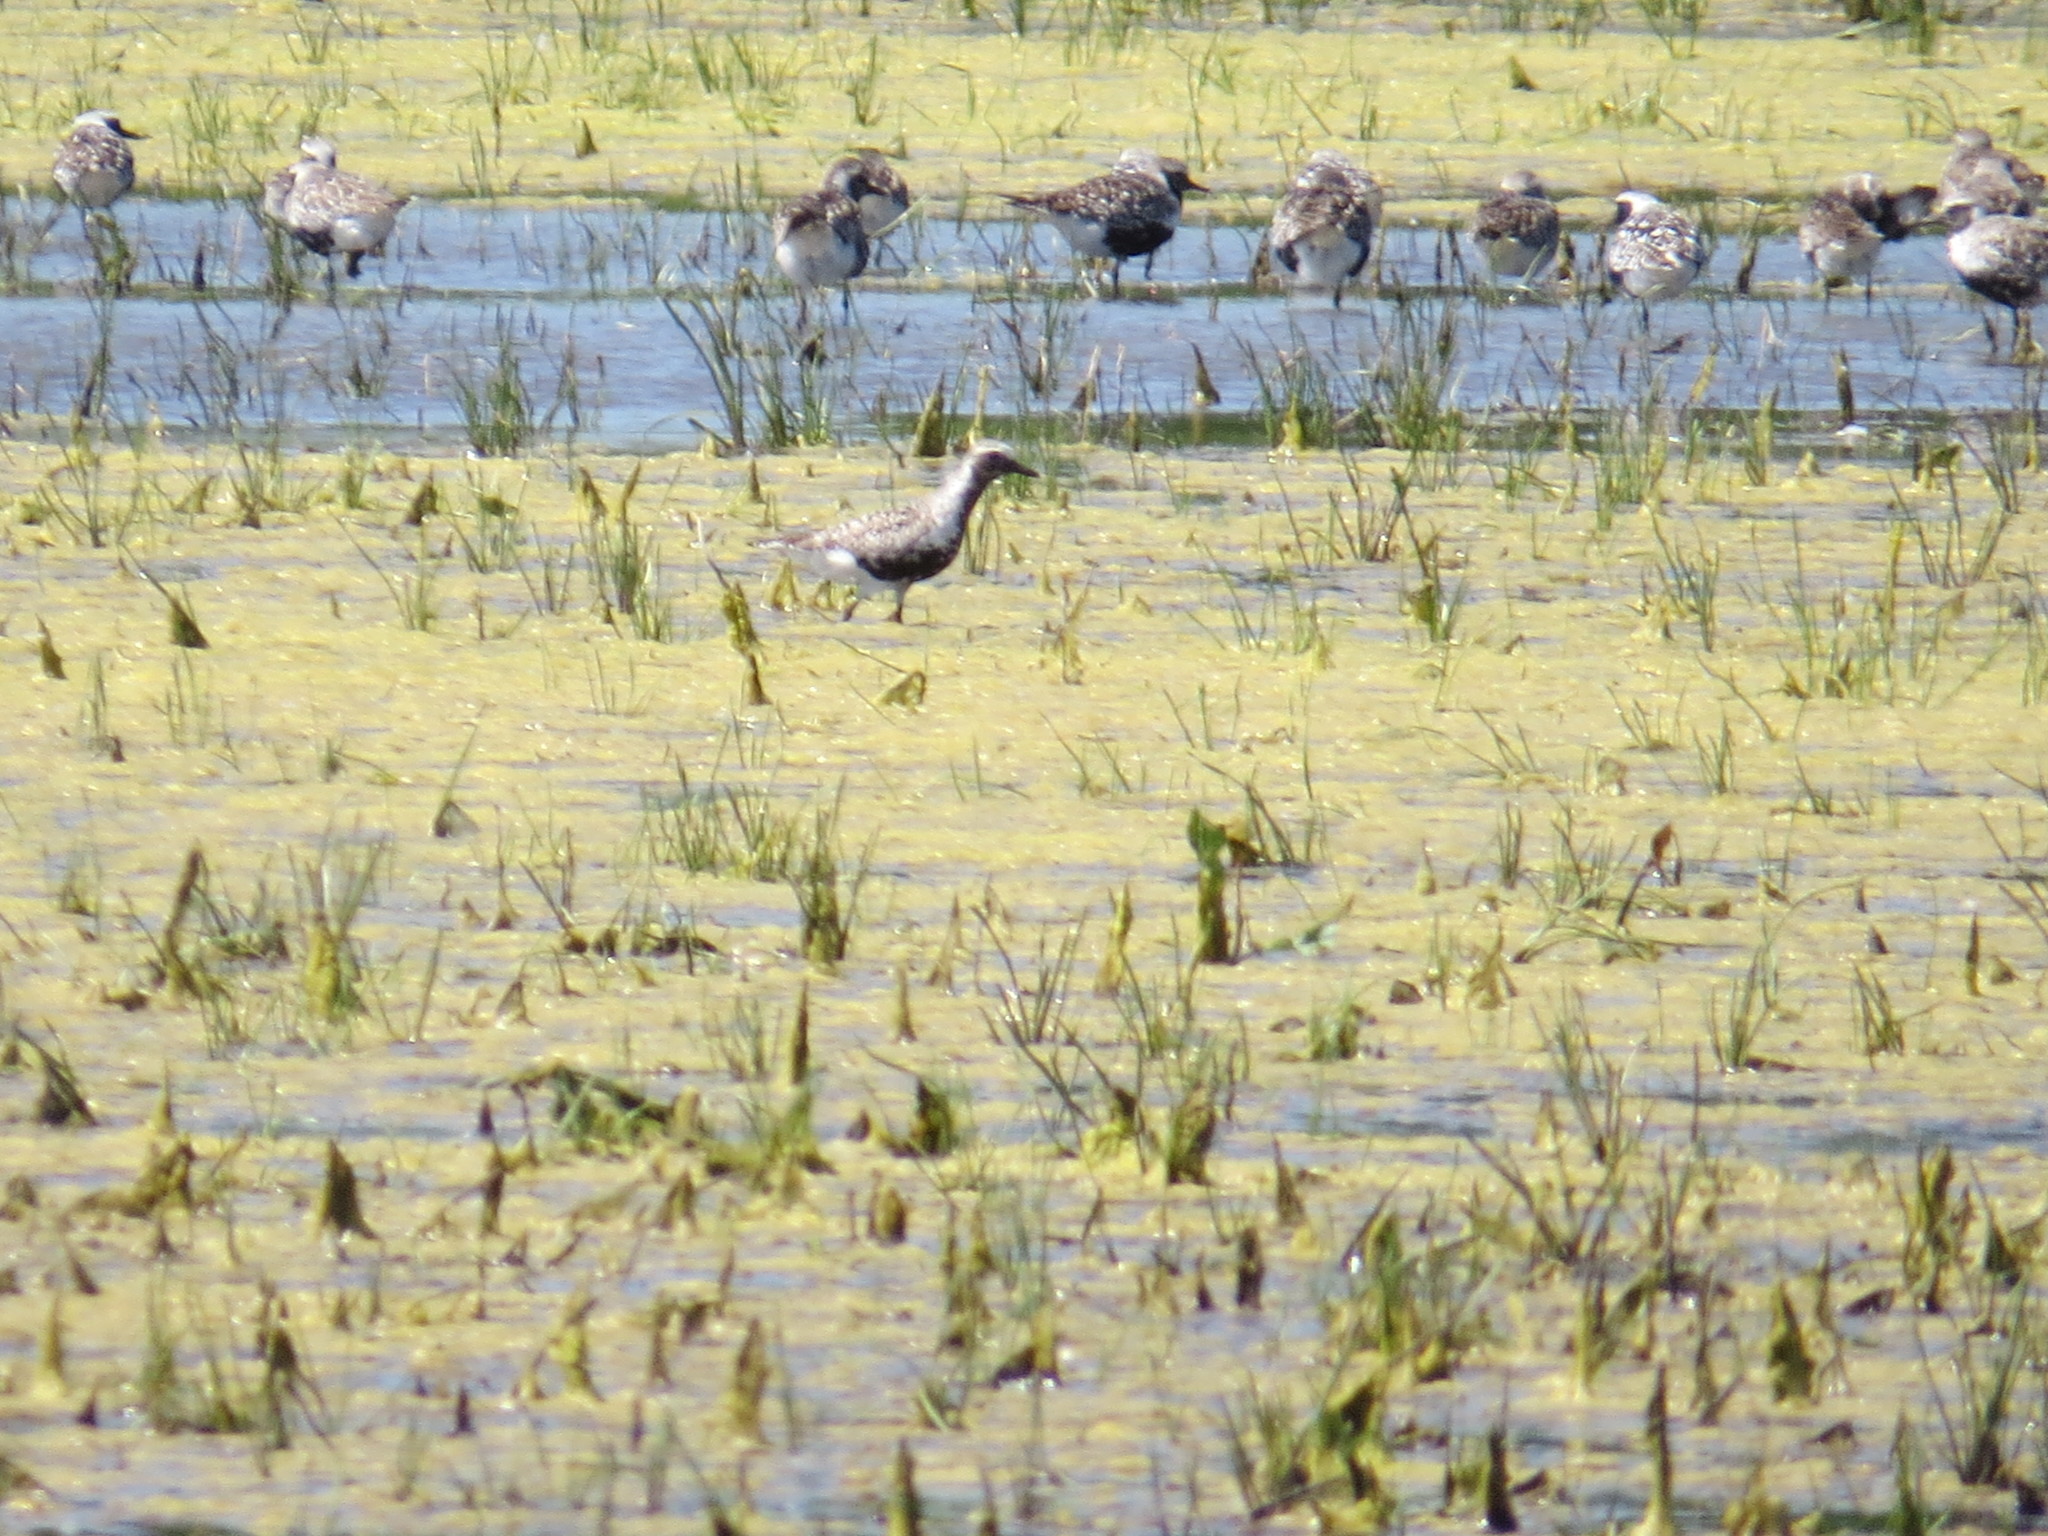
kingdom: Animalia
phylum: Chordata
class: Aves
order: Charadriiformes
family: Charadriidae
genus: Pluvialis
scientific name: Pluvialis squatarola
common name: Grey plover
